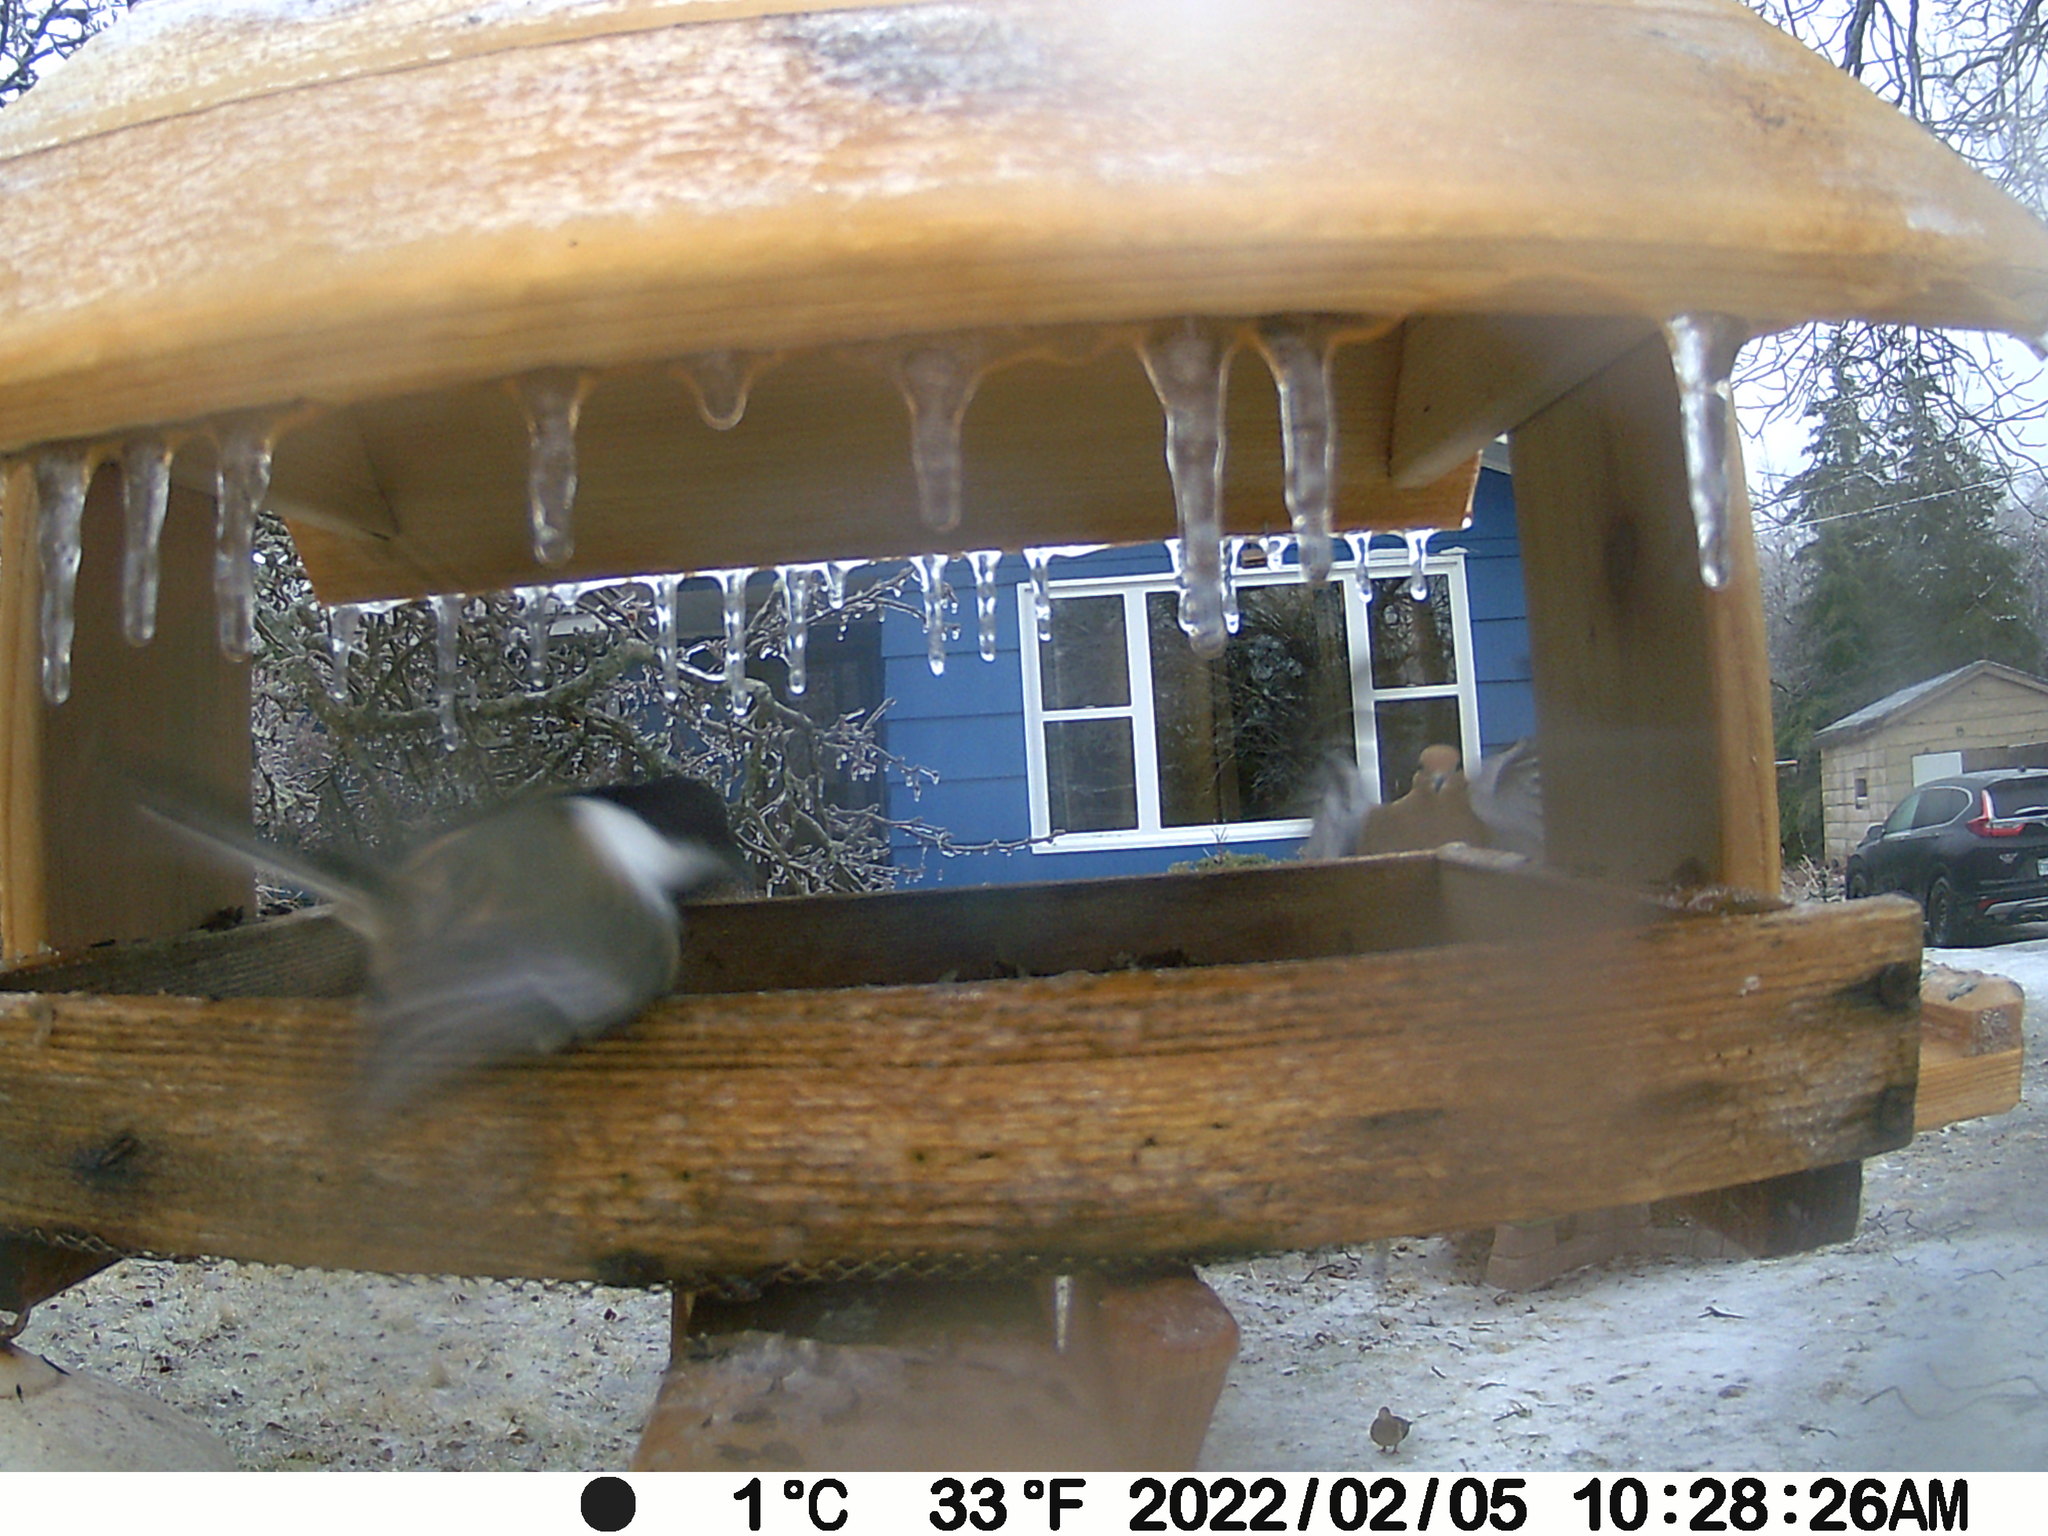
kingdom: Animalia
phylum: Chordata
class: Aves
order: Columbiformes
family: Columbidae
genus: Zenaida
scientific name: Zenaida macroura
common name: Mourning dove
